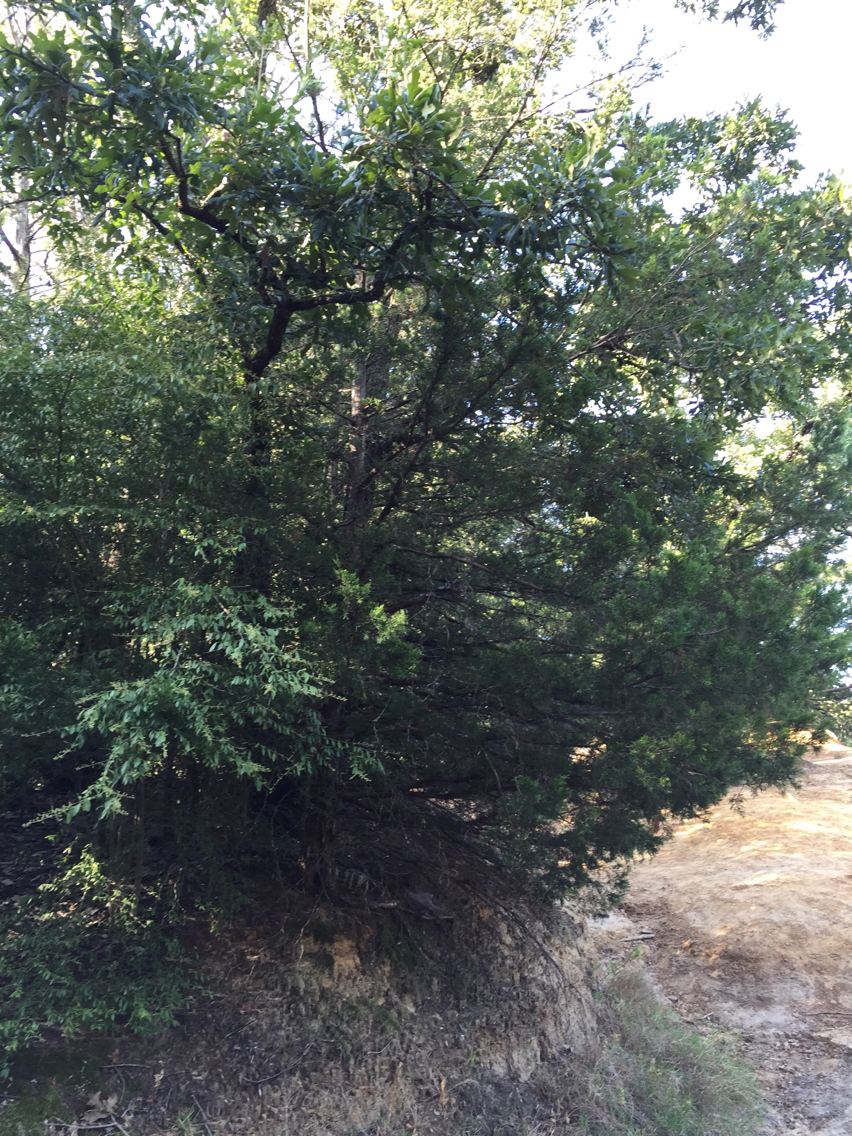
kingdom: Plantae
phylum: Tracheophyta
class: Pinopsida
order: Pinales
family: Cupressaceae
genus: Juniperus
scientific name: Juniperus virginiana
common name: Red juniper
